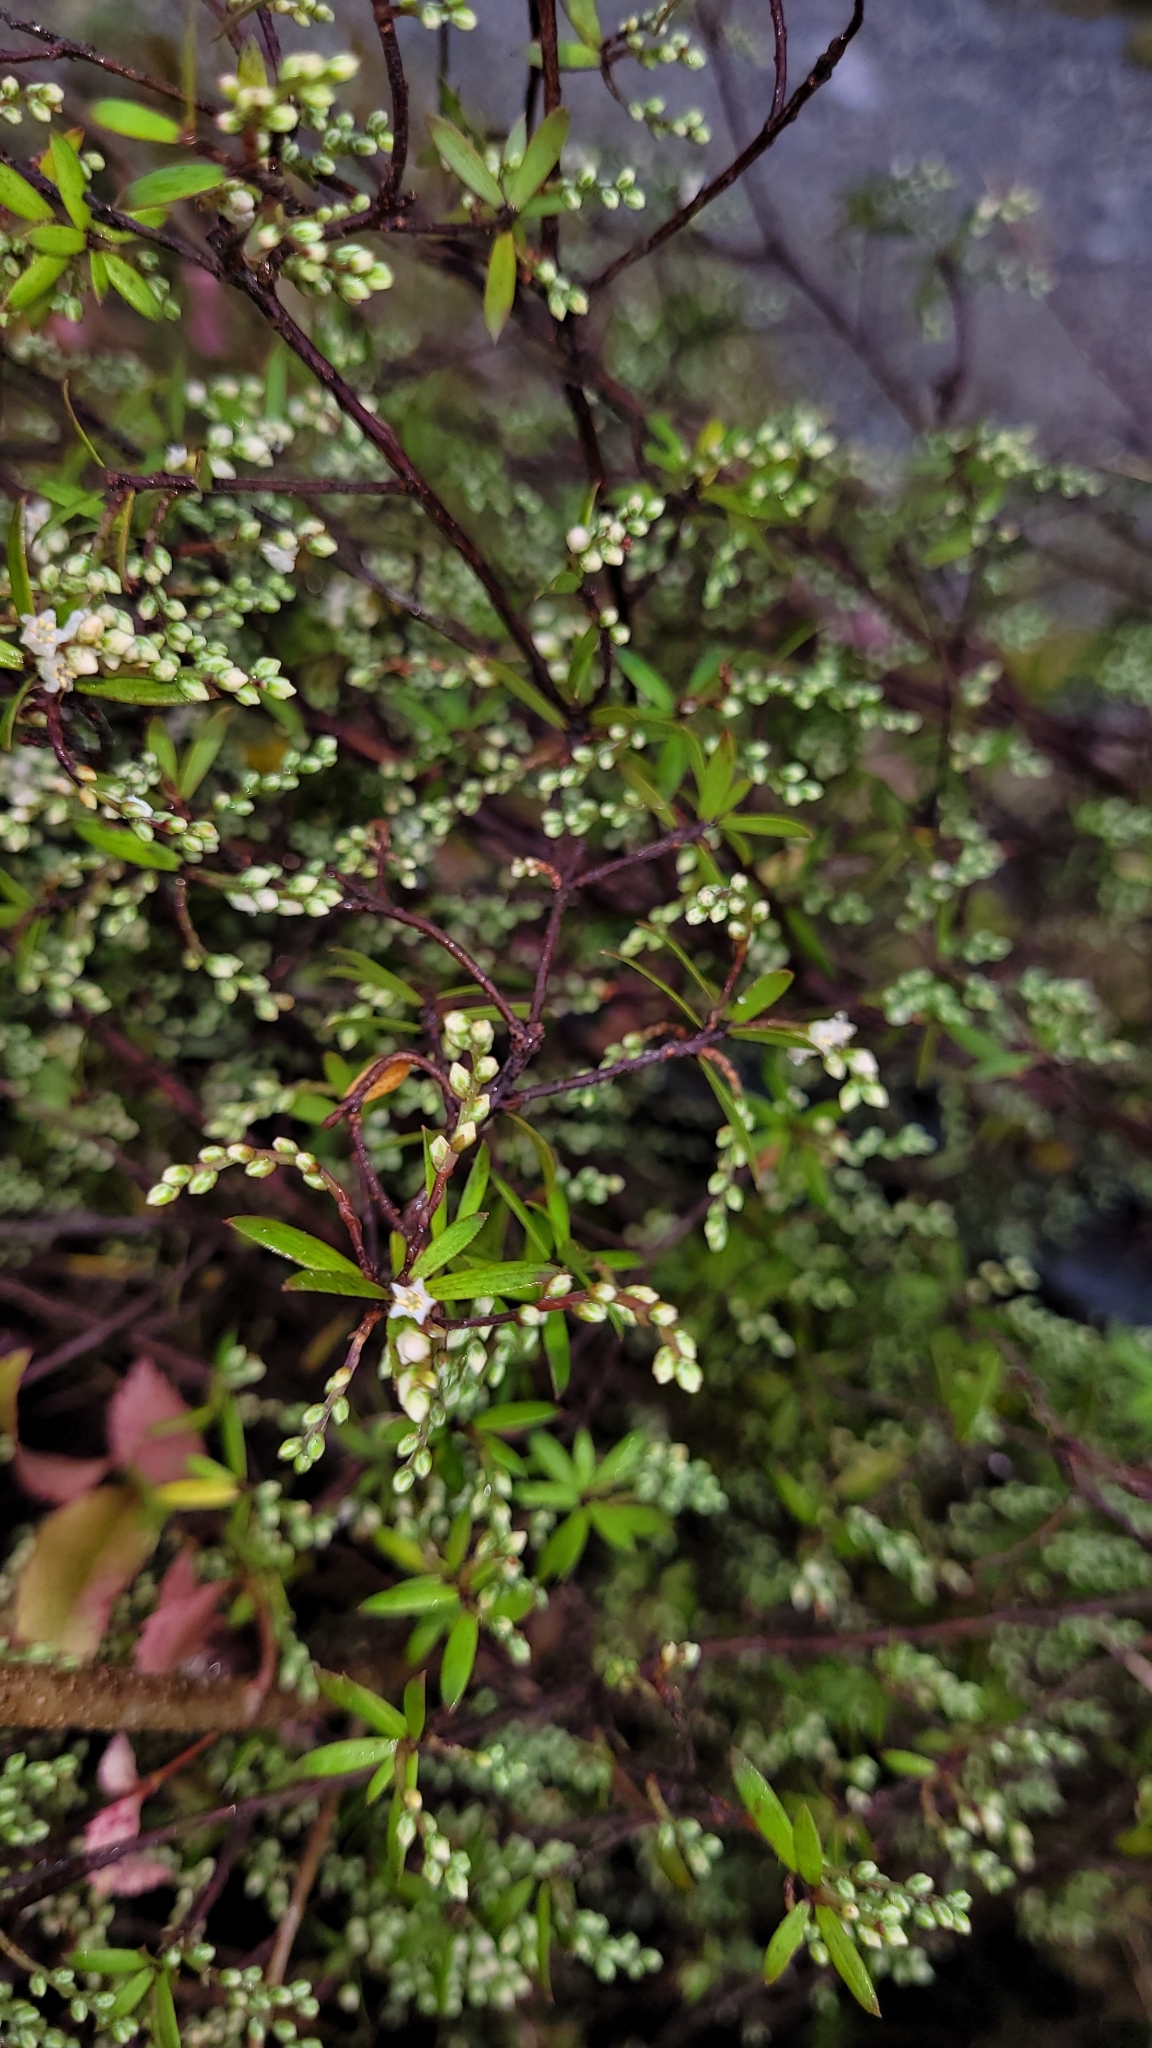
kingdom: Plantae
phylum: Tracheophyta
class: Magnoliopsida
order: Ericales
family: Ericaceae
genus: Leucopogon
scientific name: Leucopogon fasciculatus
